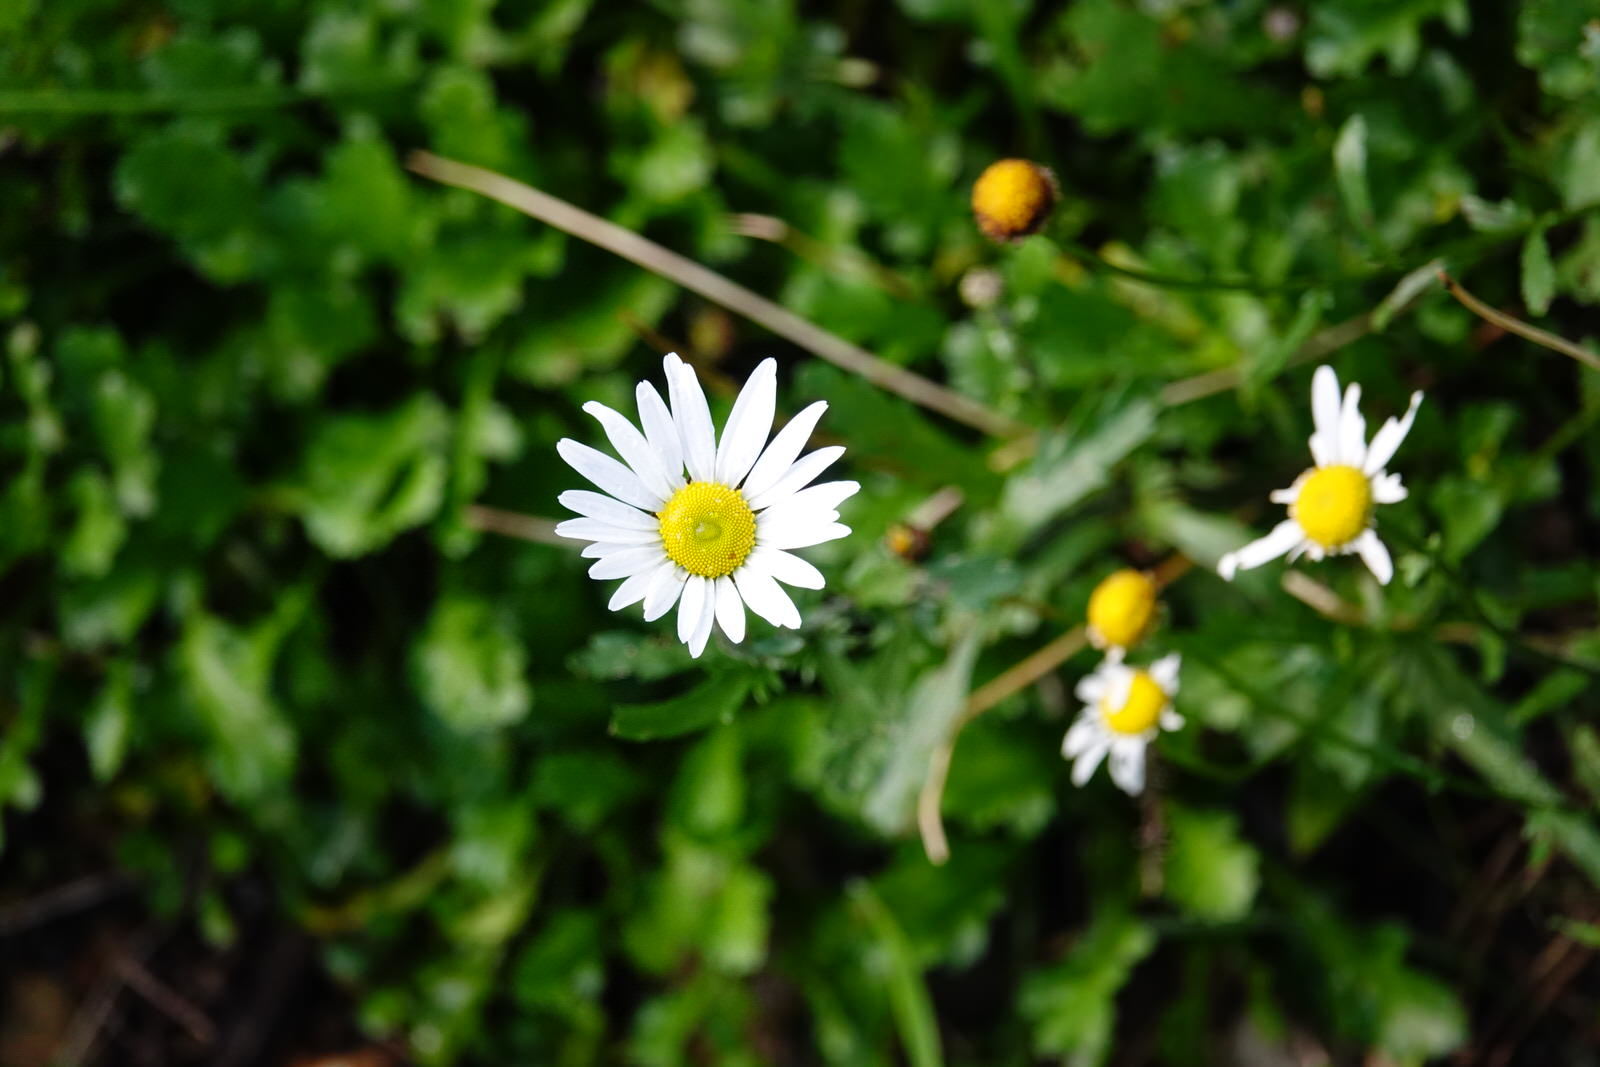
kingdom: Plantae
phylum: Tracheophyta
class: Magnoliopsida
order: Asterales
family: Asteraceae
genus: Leucanthemum
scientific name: Leucanthemum vulgare
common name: Oxeye daisy
